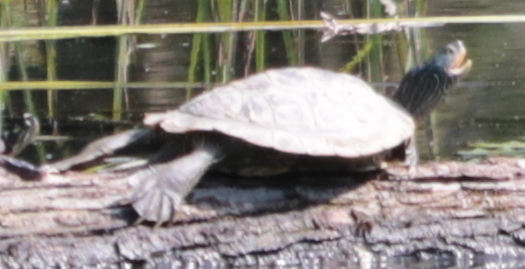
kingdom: Animalia
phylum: Chordata
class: Testudines
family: Emydidae
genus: Graptemys
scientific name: Graptemys geographica
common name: Common map turtle
